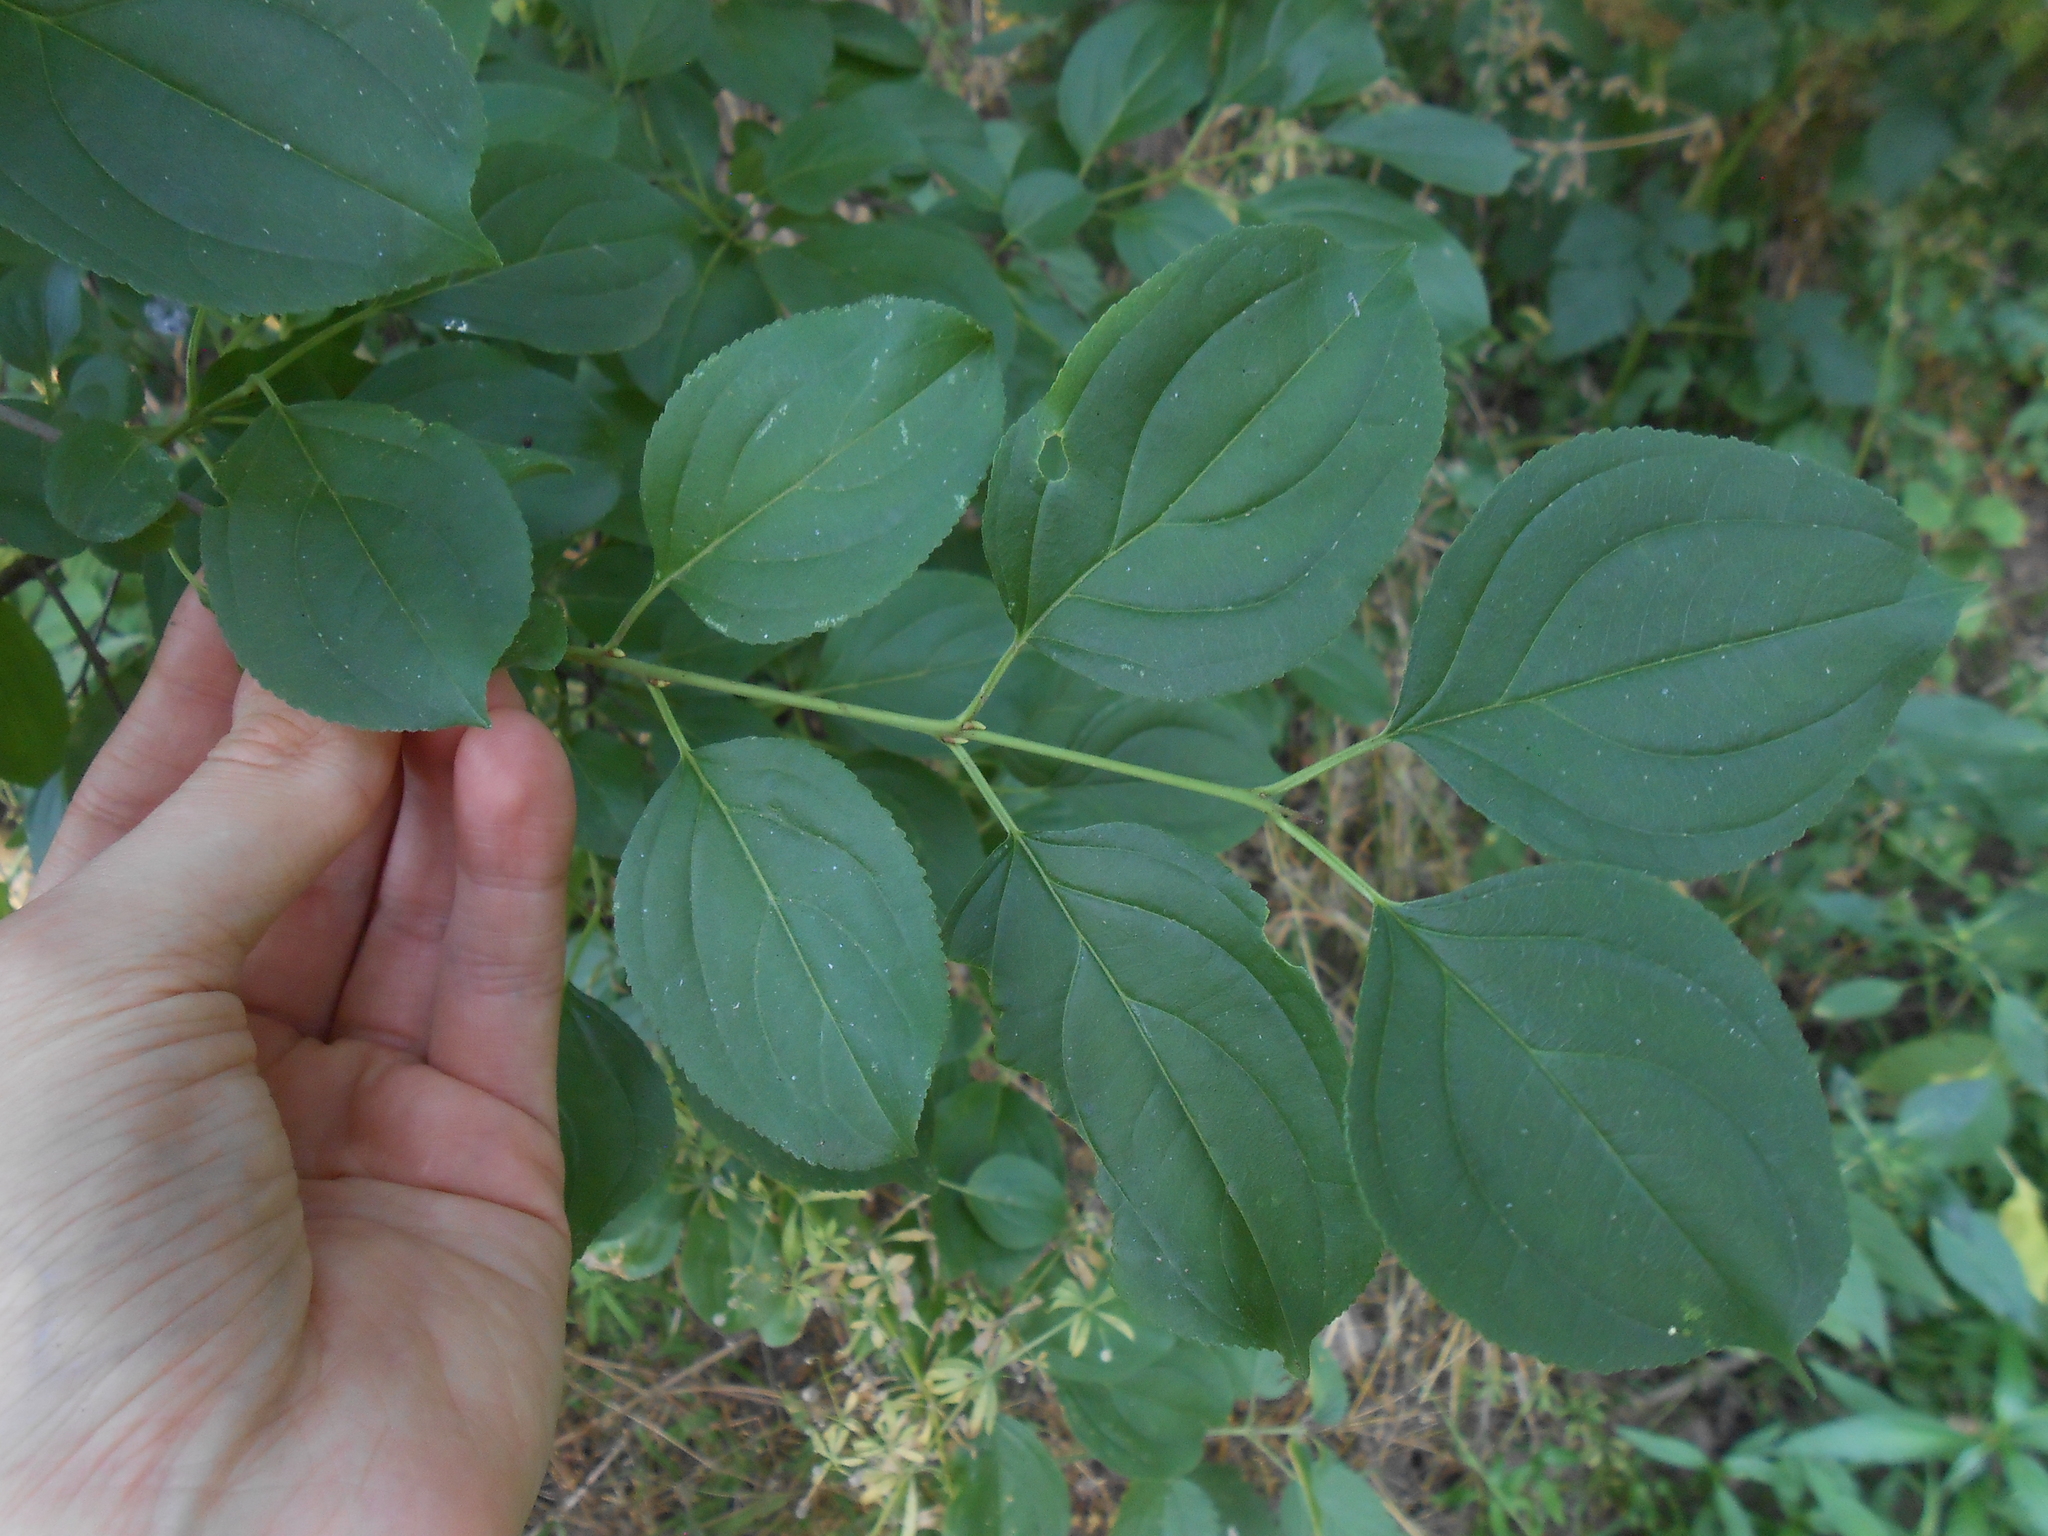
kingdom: Plantae
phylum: Tracheophyta
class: Magnoliopsida
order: Rosales
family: Rhamnaceae
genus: Rhamnus
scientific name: Rhamnus cathartica
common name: Common buckthorn
